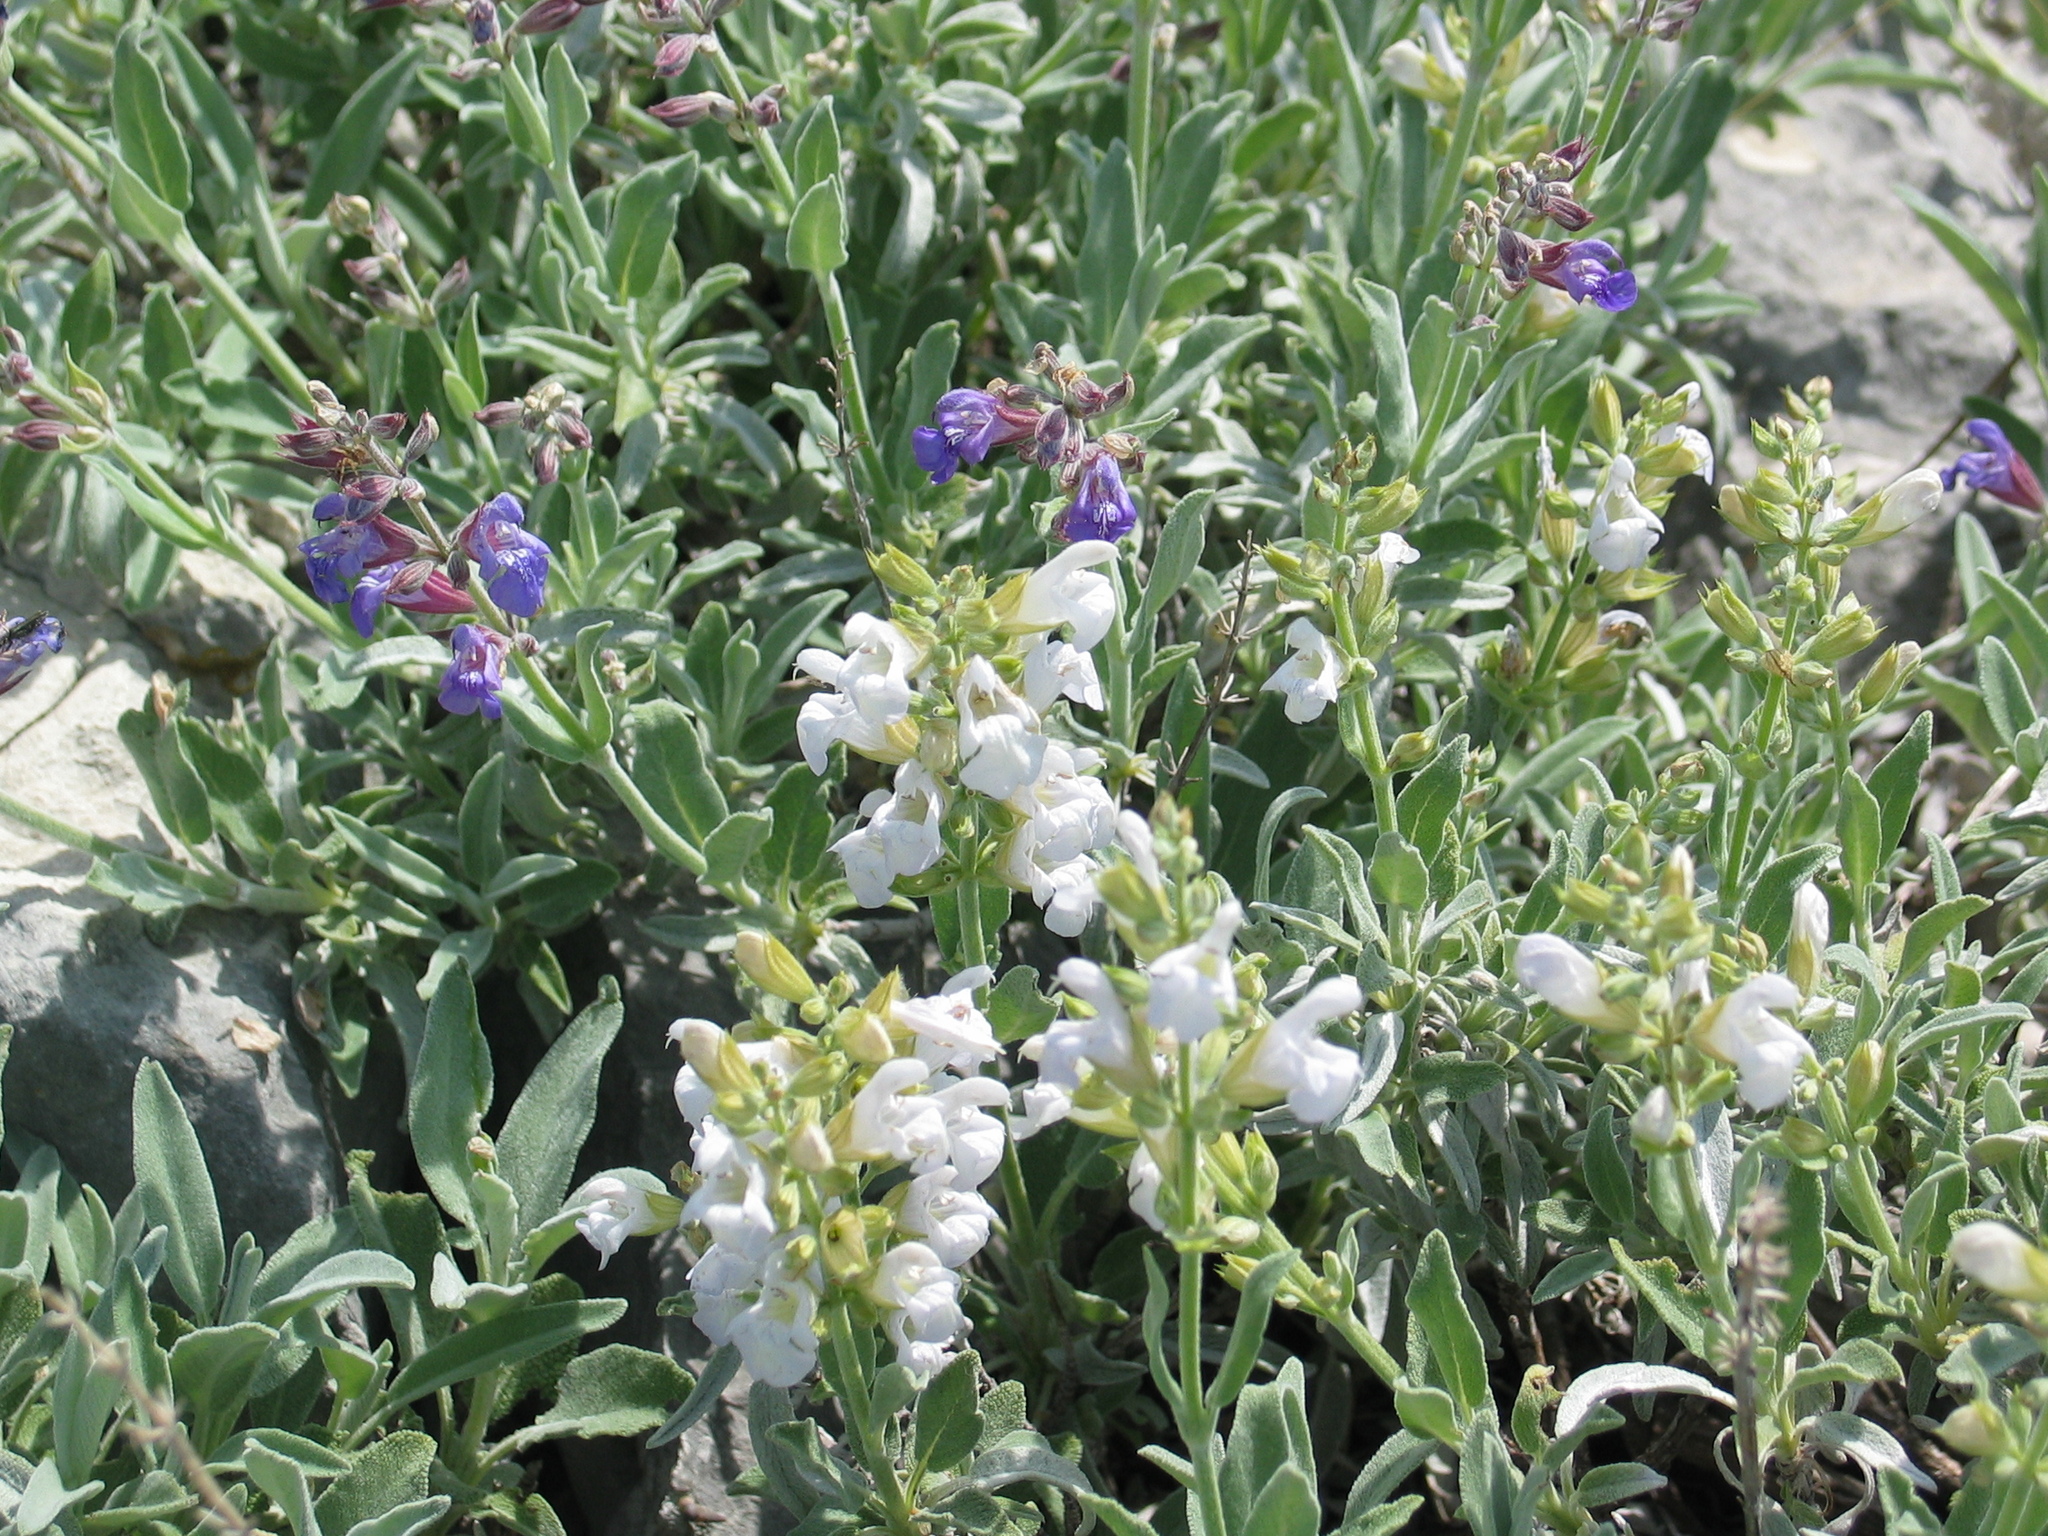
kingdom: Plantae
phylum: Tracheophyta
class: Magnoliopsida
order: Lamiales
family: Lamiaceae
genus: Salvia
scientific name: Salvia officinalis
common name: Sage
